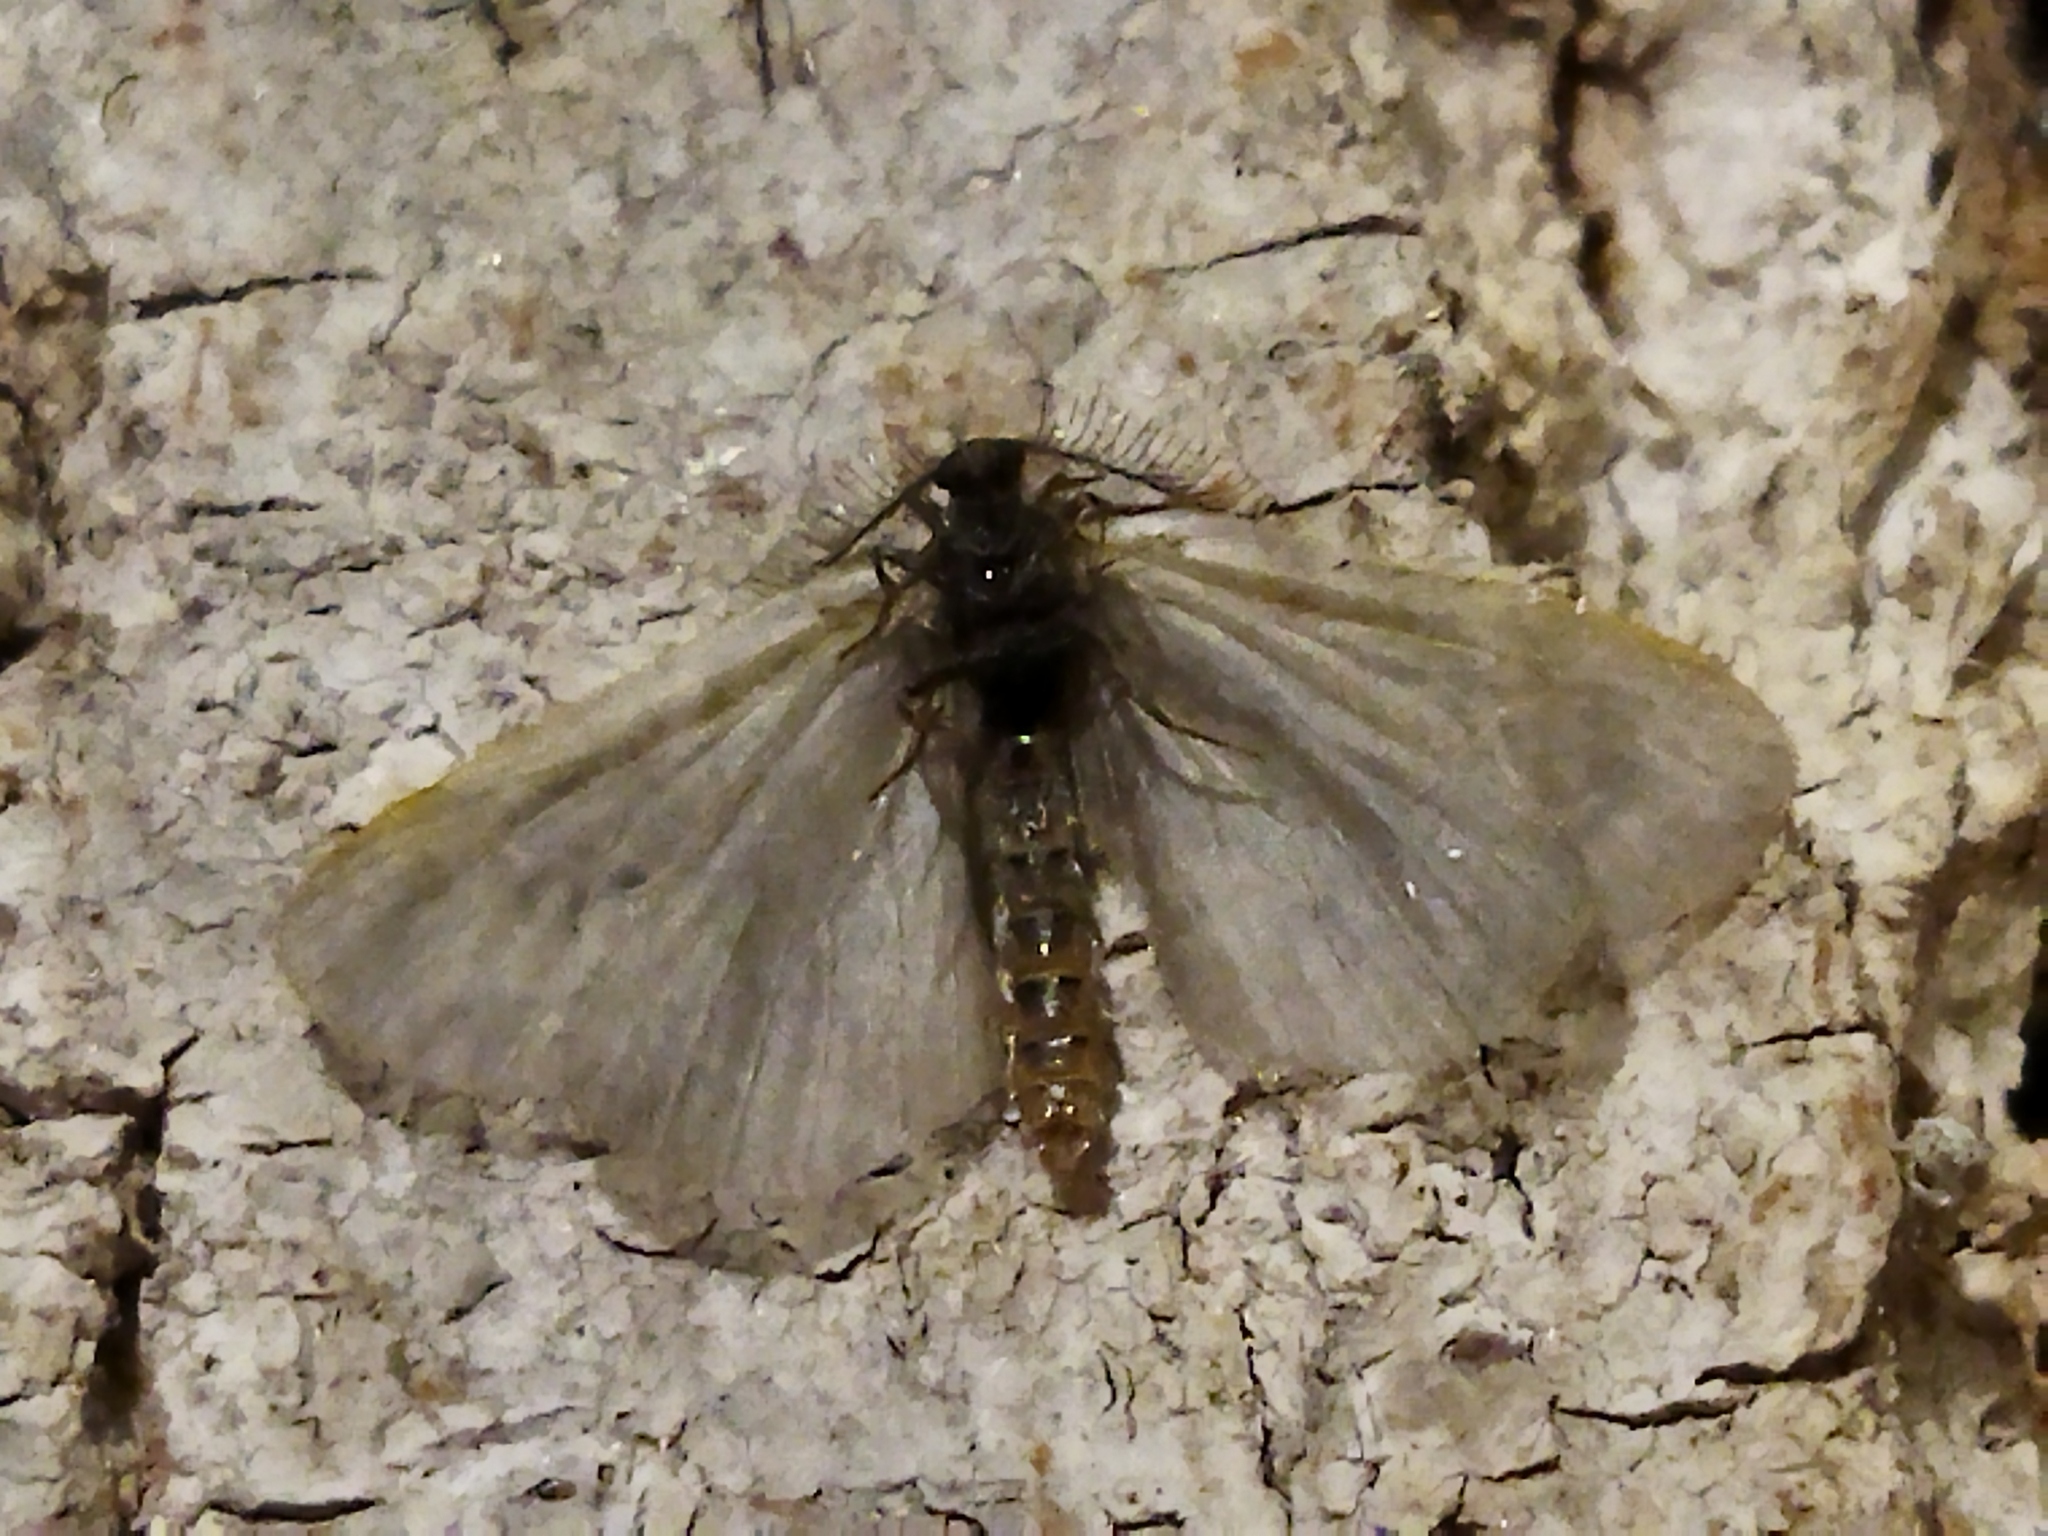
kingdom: Animalia
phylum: Arthropoda
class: Insecta
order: Lepidoptera
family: Psychidae
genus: Rebelia
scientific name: Rebelia perlucidella
